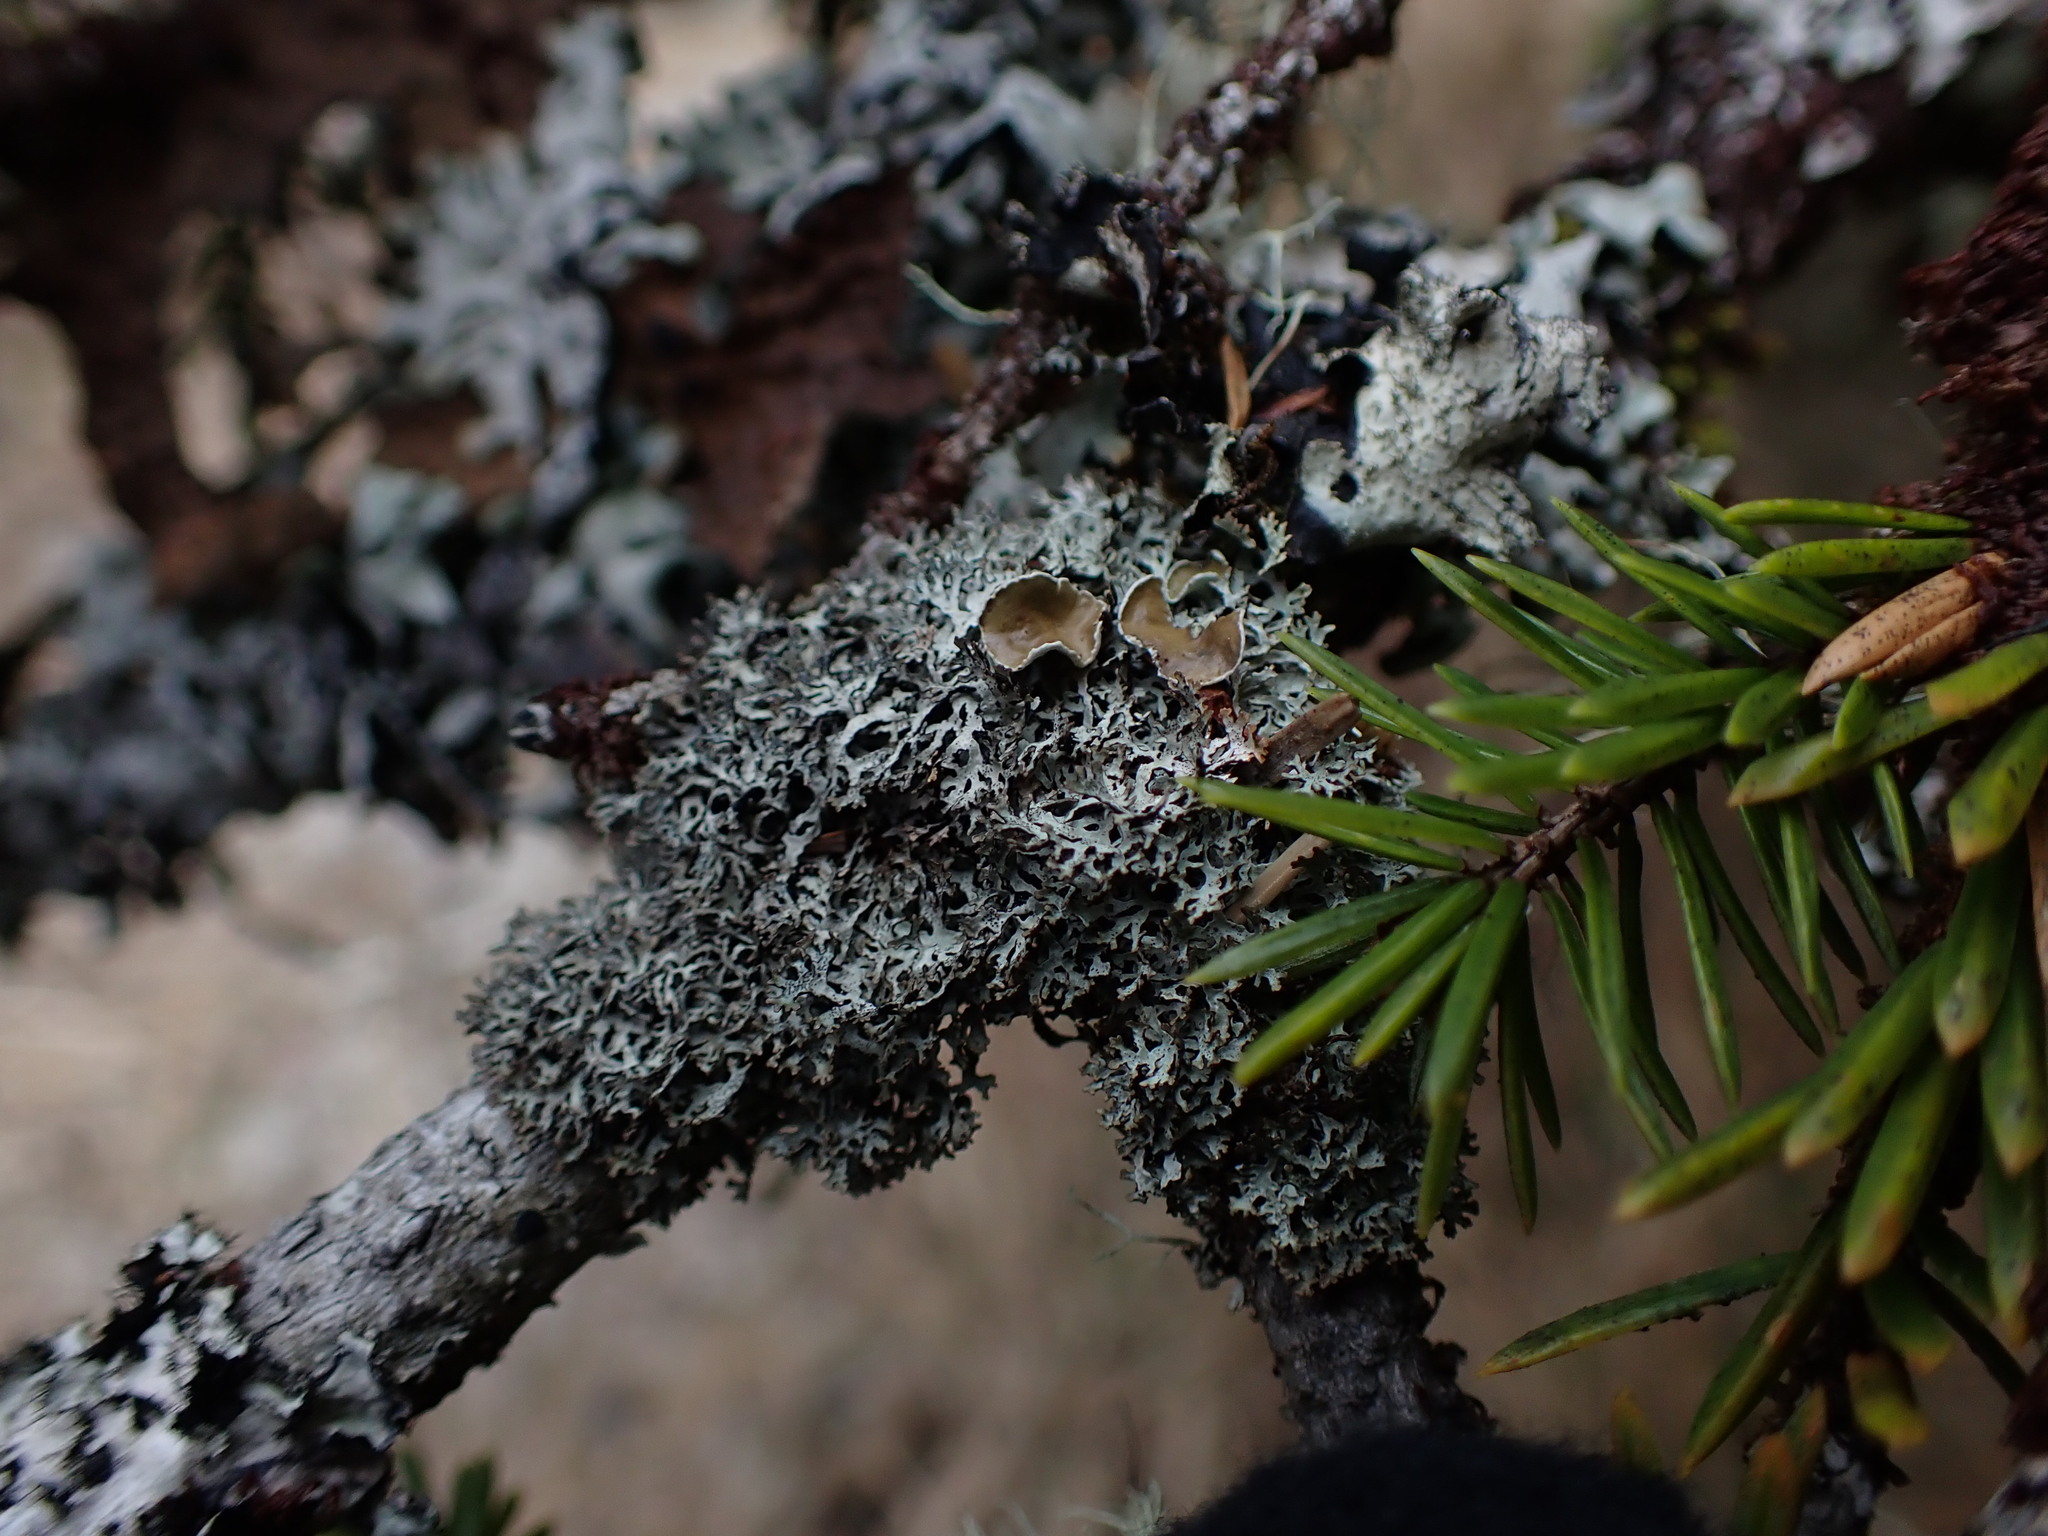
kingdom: Fungi
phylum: Ascomycota
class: Lecanoromycetes
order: Lecanorales
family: Parmeliaceae
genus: Hypogymnia
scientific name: Hypogymnia lophyrea
